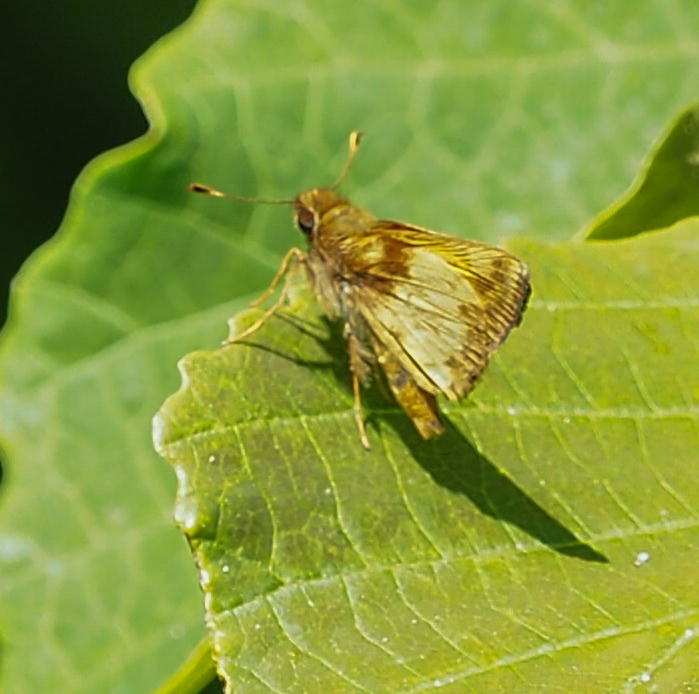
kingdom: Animalia
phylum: Arthropoda
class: Insecta
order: Lepidoptera
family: Hesperiidae
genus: Lon
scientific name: Lon zabulon
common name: Zabulon skipper
